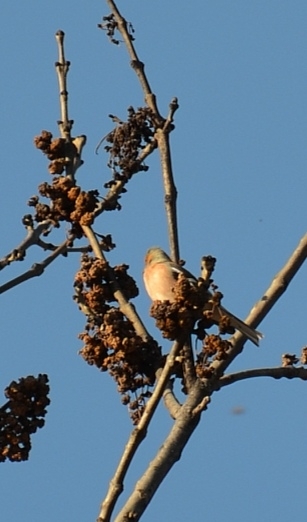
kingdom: Animalia
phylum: Chordata
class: Aves
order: Passeriformes
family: Fringillidae
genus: Fringilla
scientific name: Fringilla coelebs
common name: Common chaffinch
